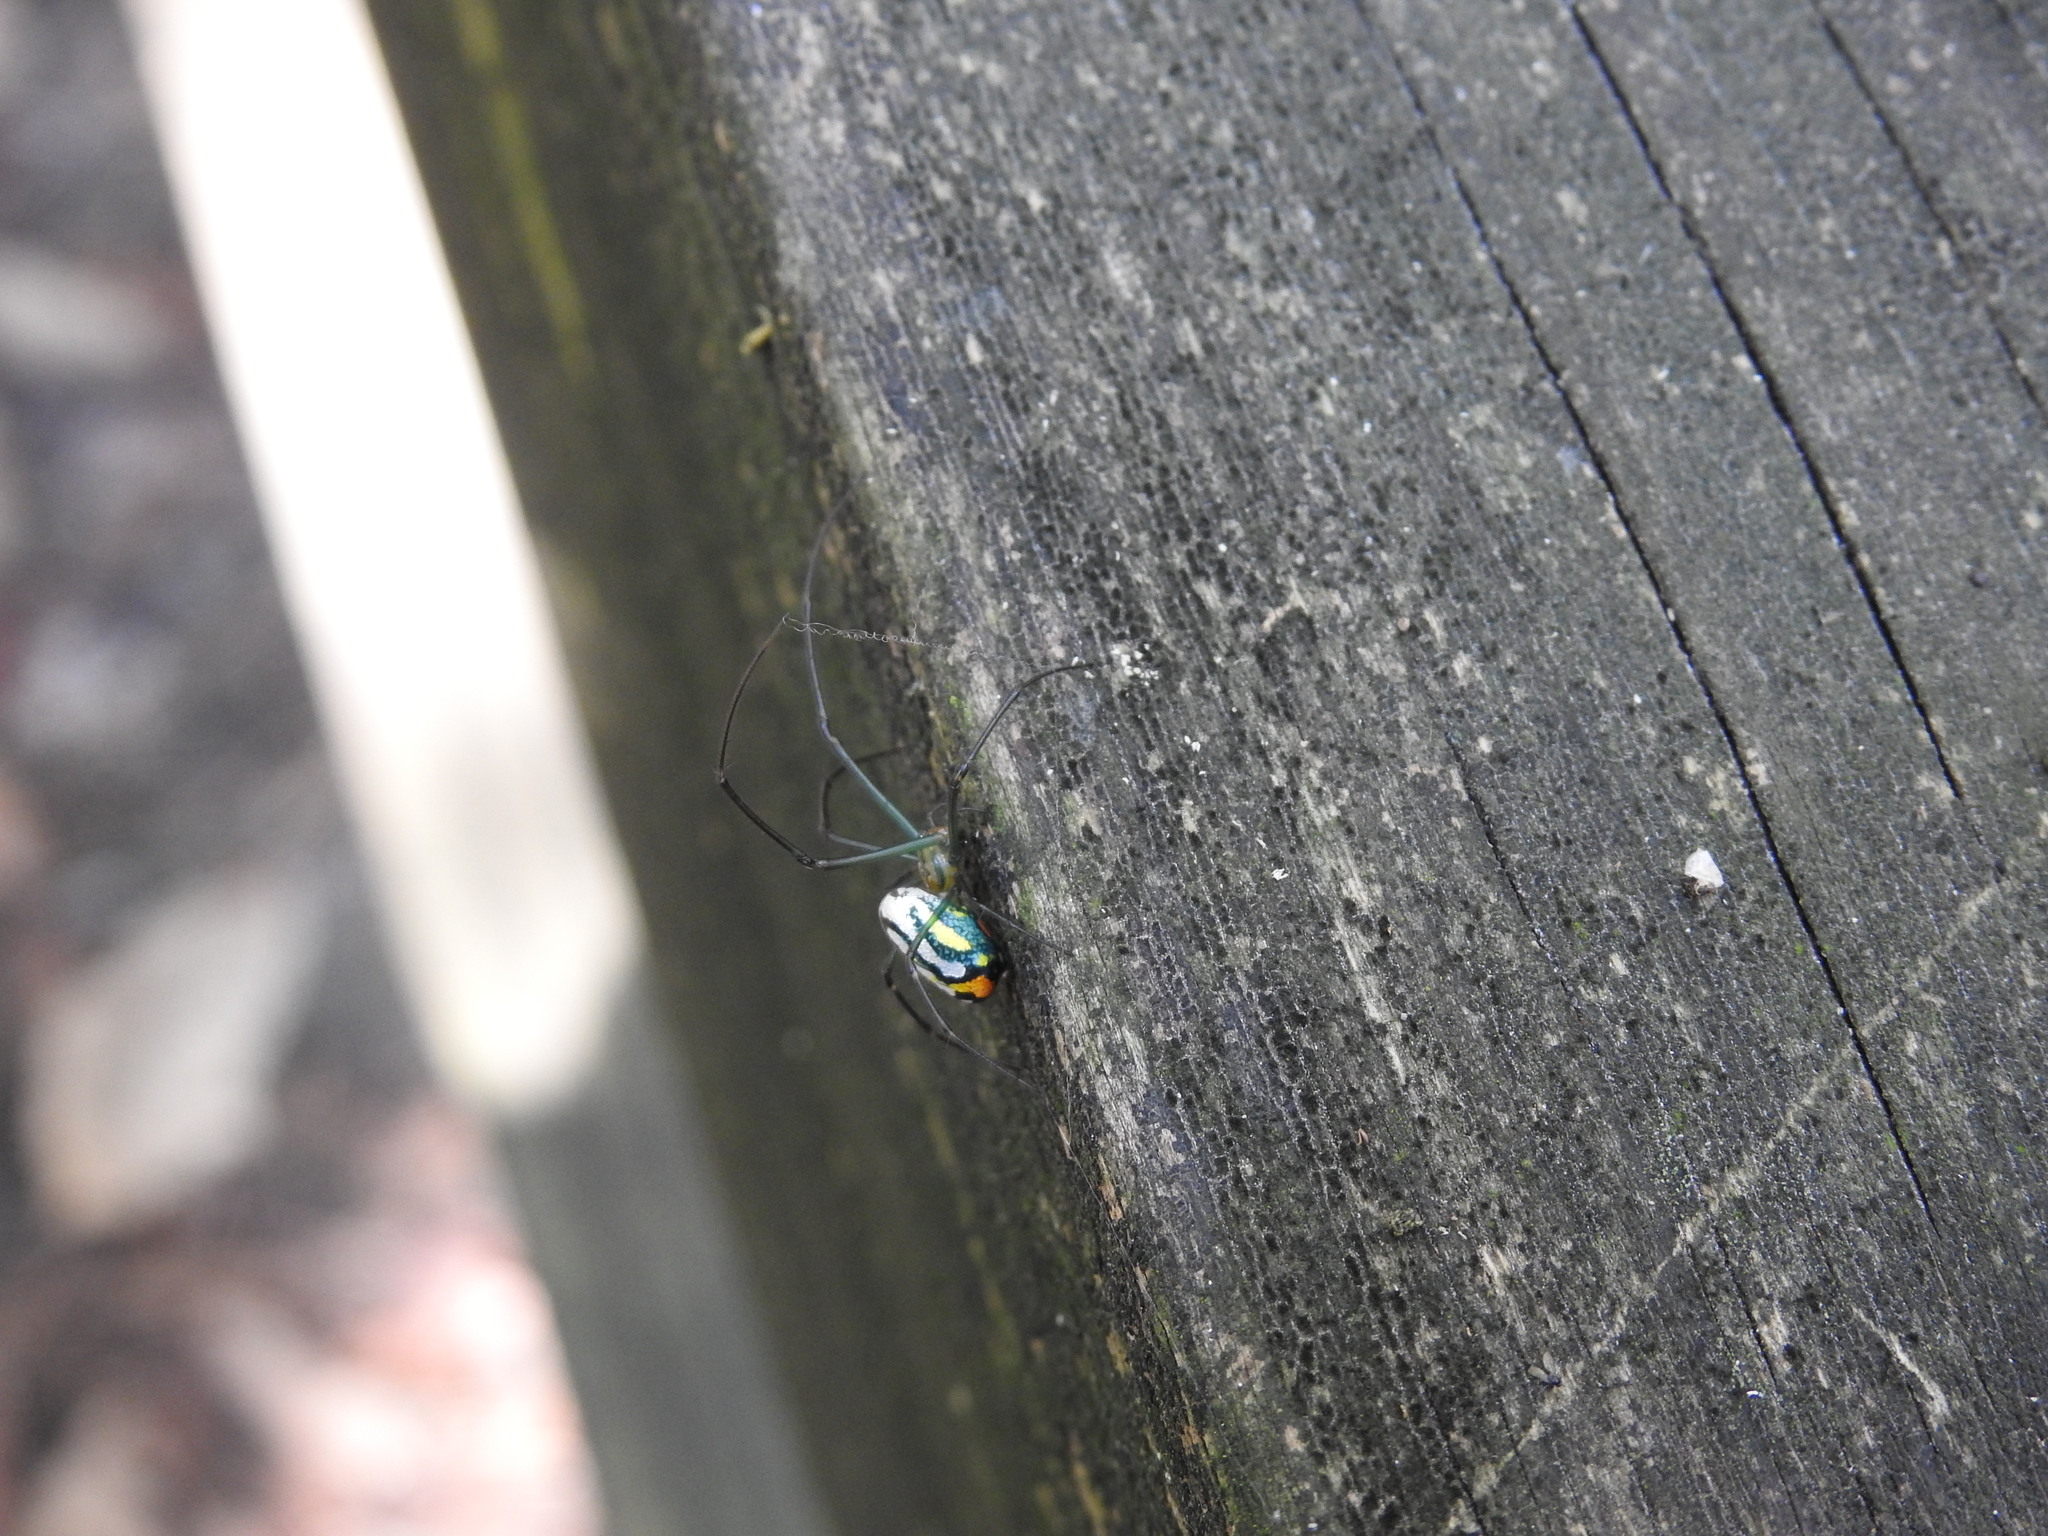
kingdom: Animalia
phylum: Arthropoda
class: Arachnida
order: Araneae
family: Tetragnathidae
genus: Leucauge
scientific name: Leucauge argyrobapta
